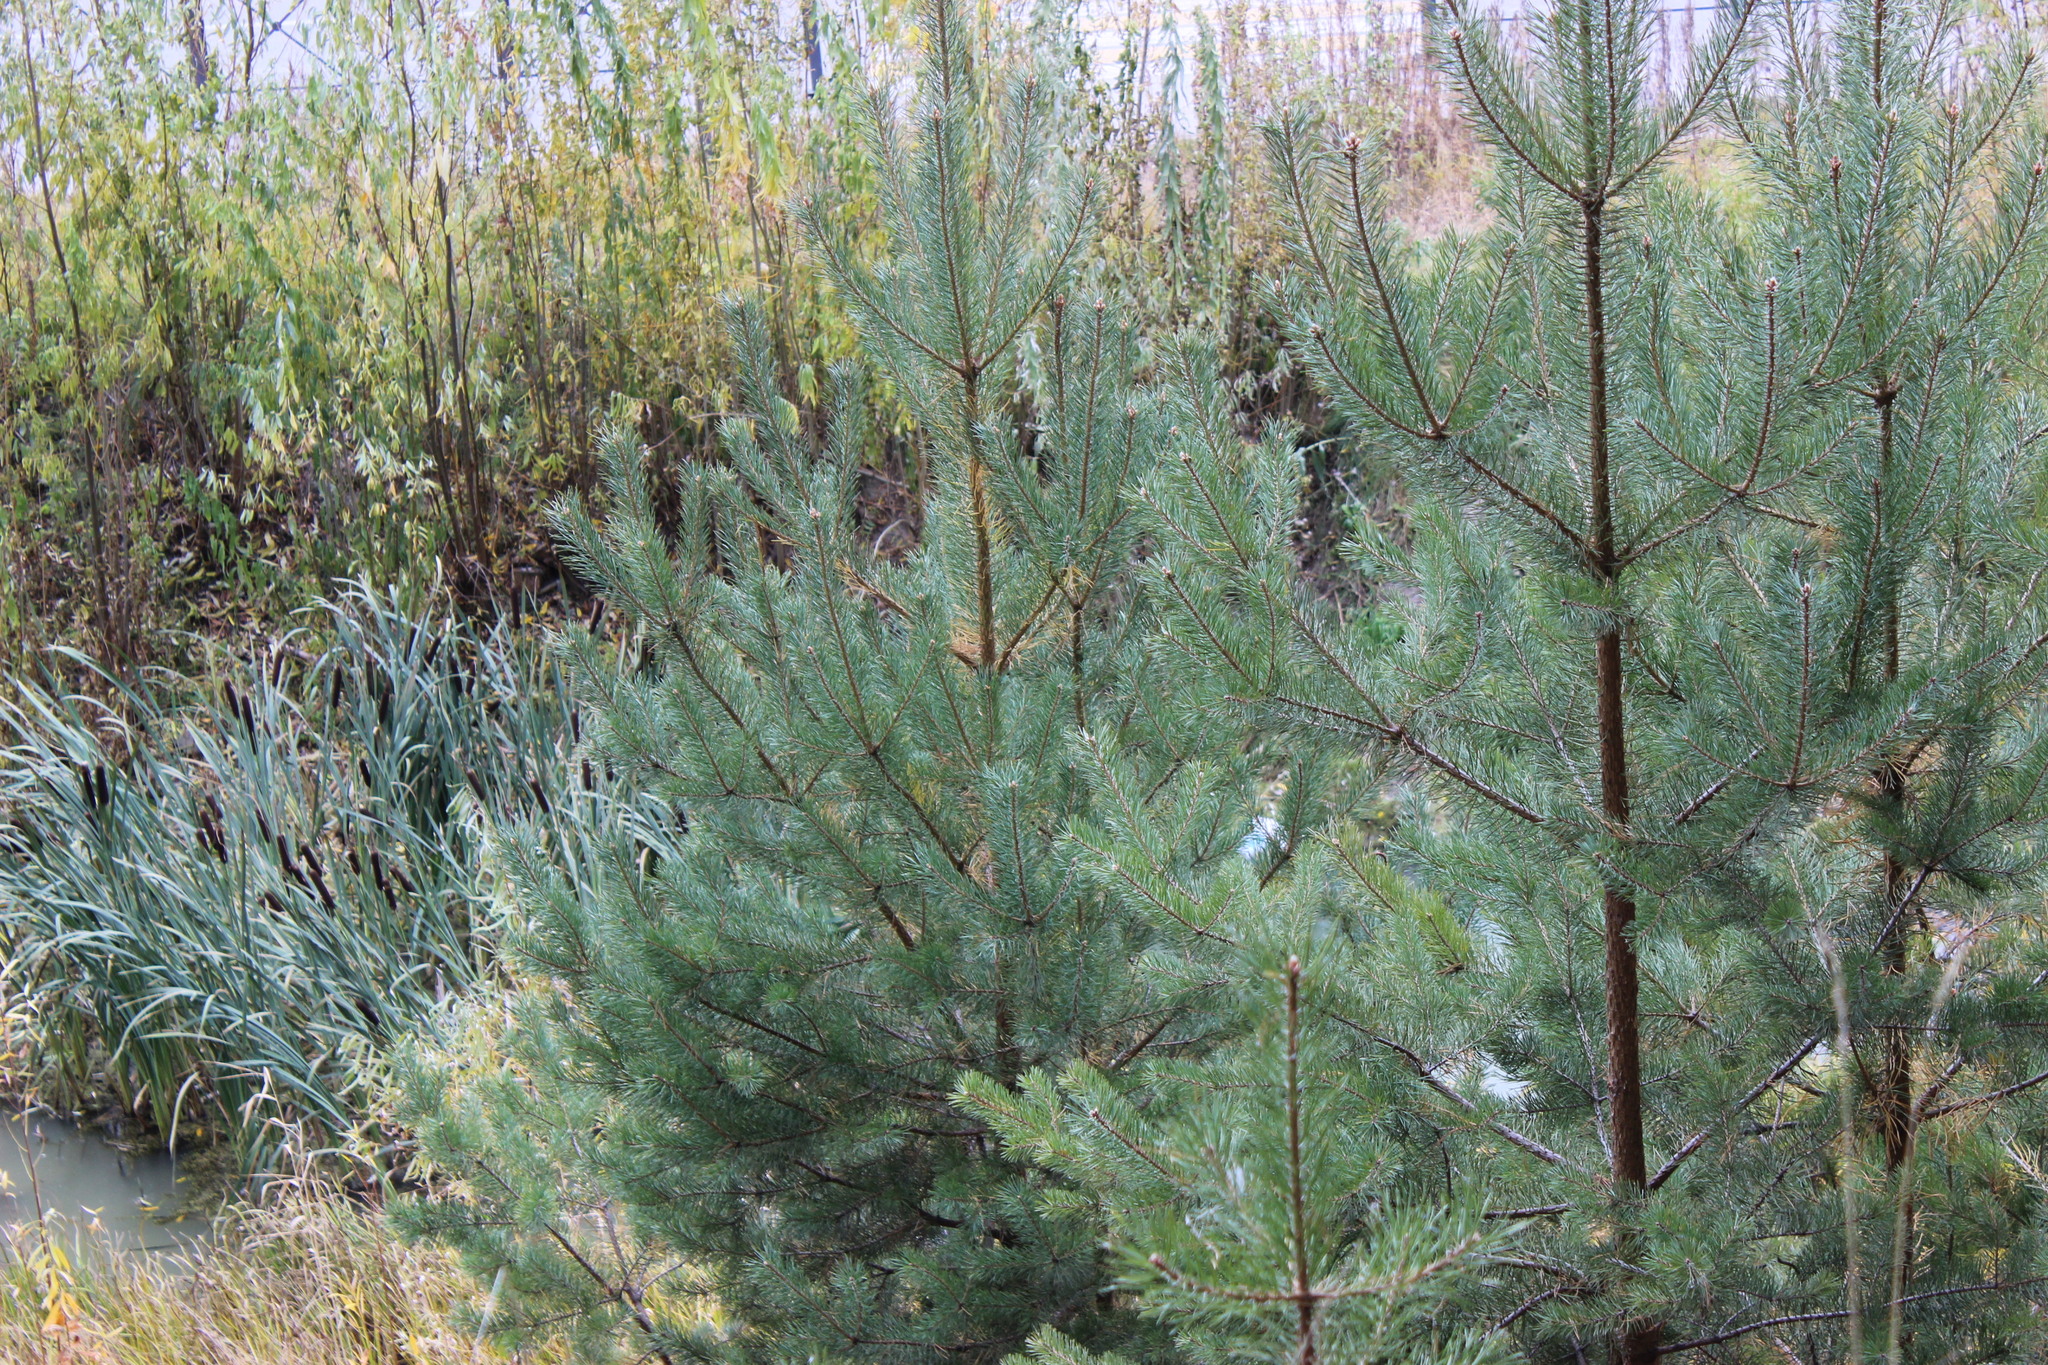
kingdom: Plantae
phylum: Tracheophyta
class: Pinopsida
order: Pinales
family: Pinaceae
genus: Pinus
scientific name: Pinus sylvestris
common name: Scots pine
